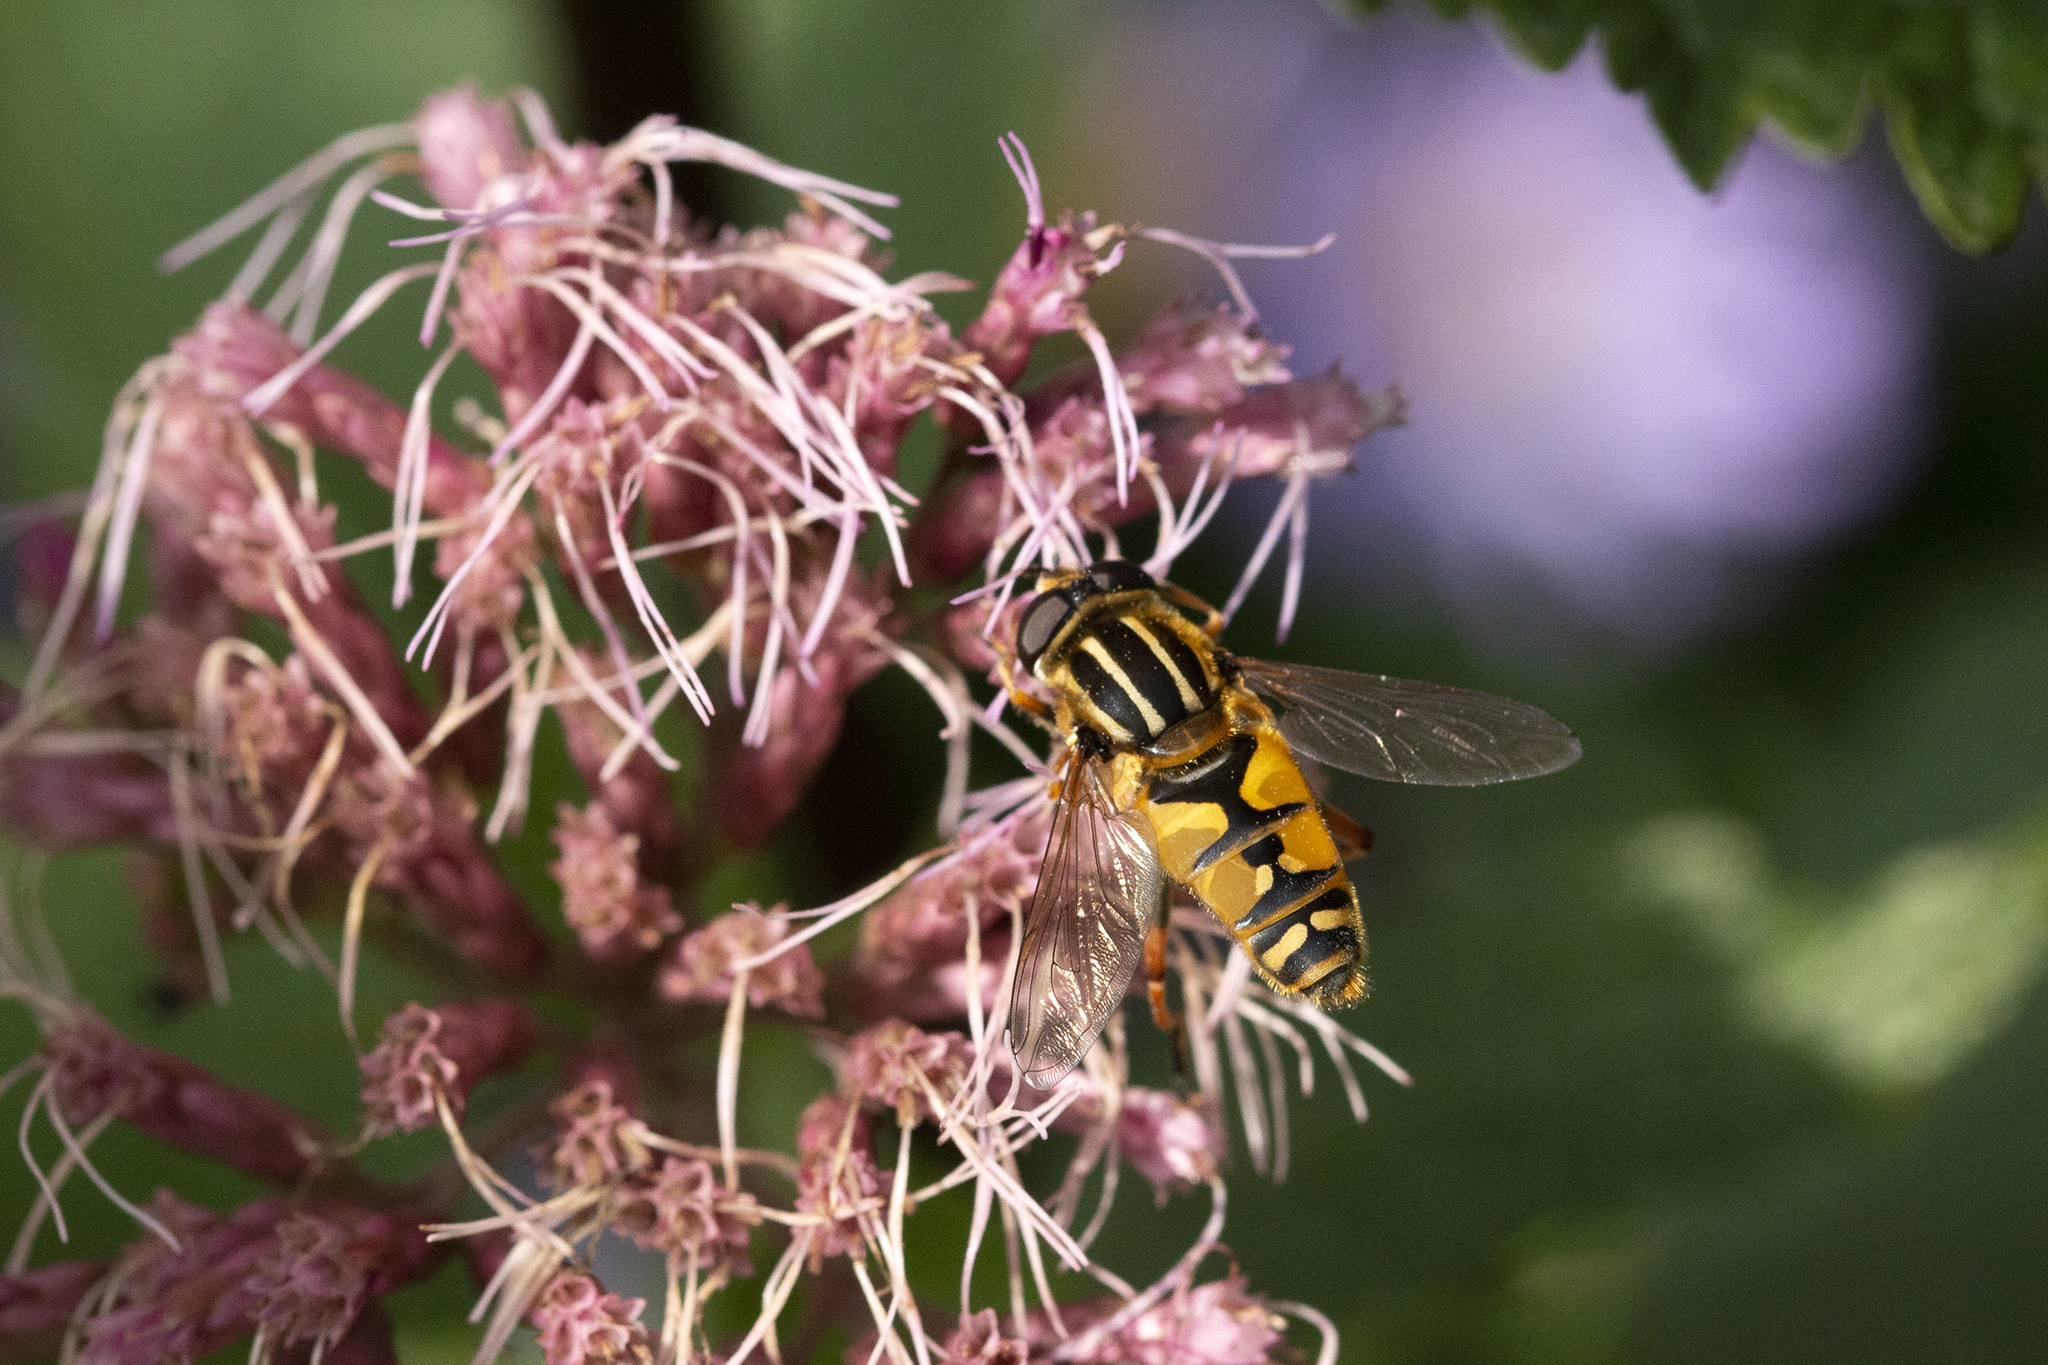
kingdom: Animalia
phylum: Arthropoda
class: Insecta
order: Diptera
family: Syrphidae
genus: Helophilus
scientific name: Helophilus pendulus
